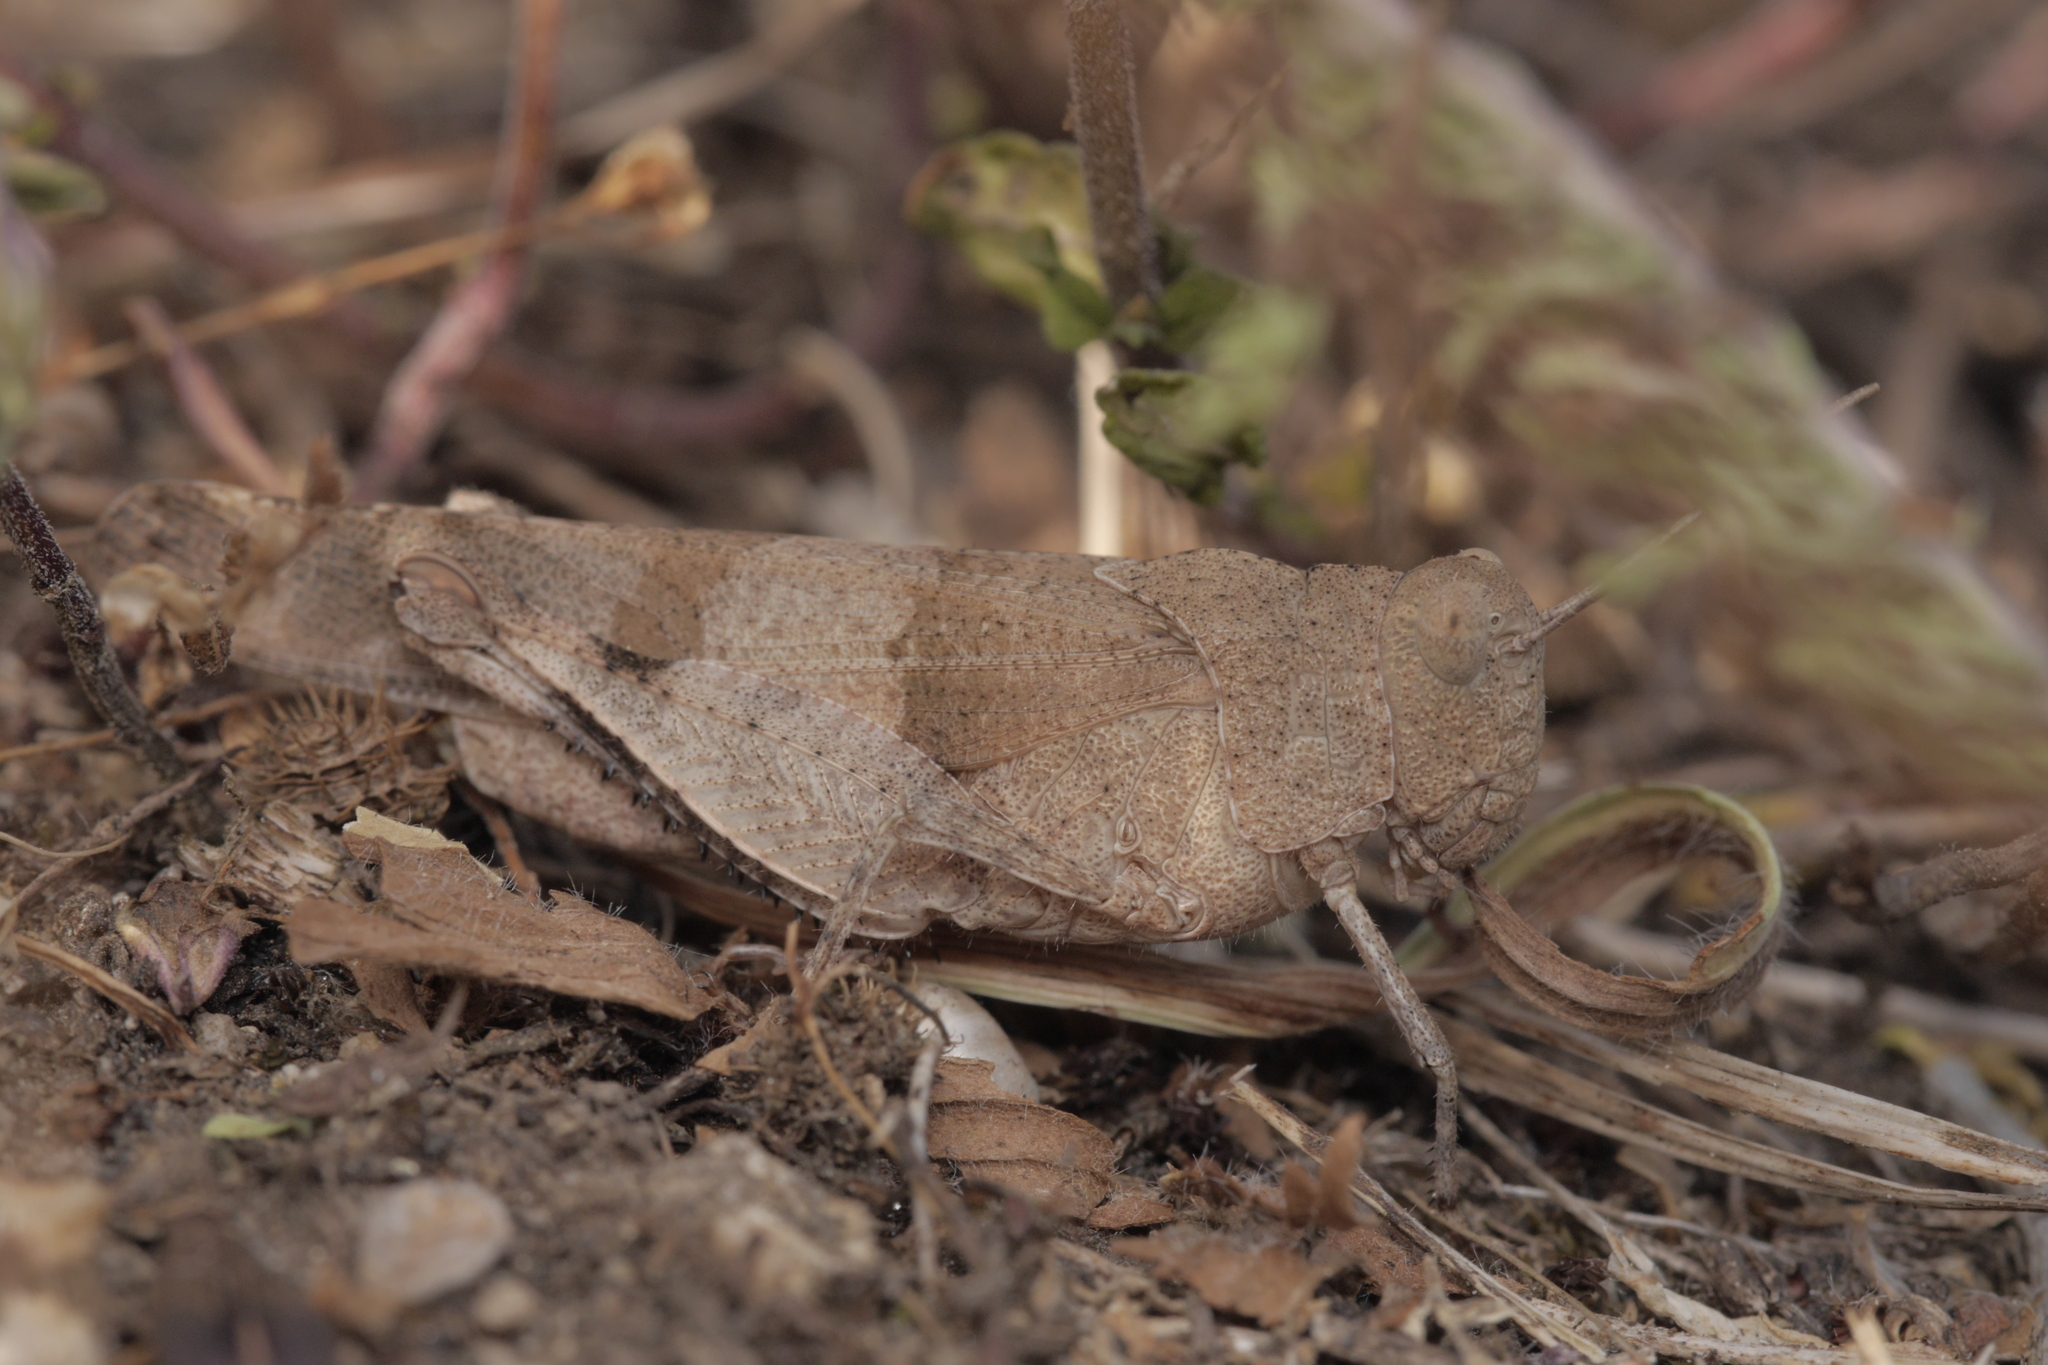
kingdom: Animalia
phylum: Arthropoda
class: Insecta
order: Orthoptera
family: Acrididae
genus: Oedipoda
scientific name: Oedipoda caerulescens
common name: Blue-winged grasshopper
